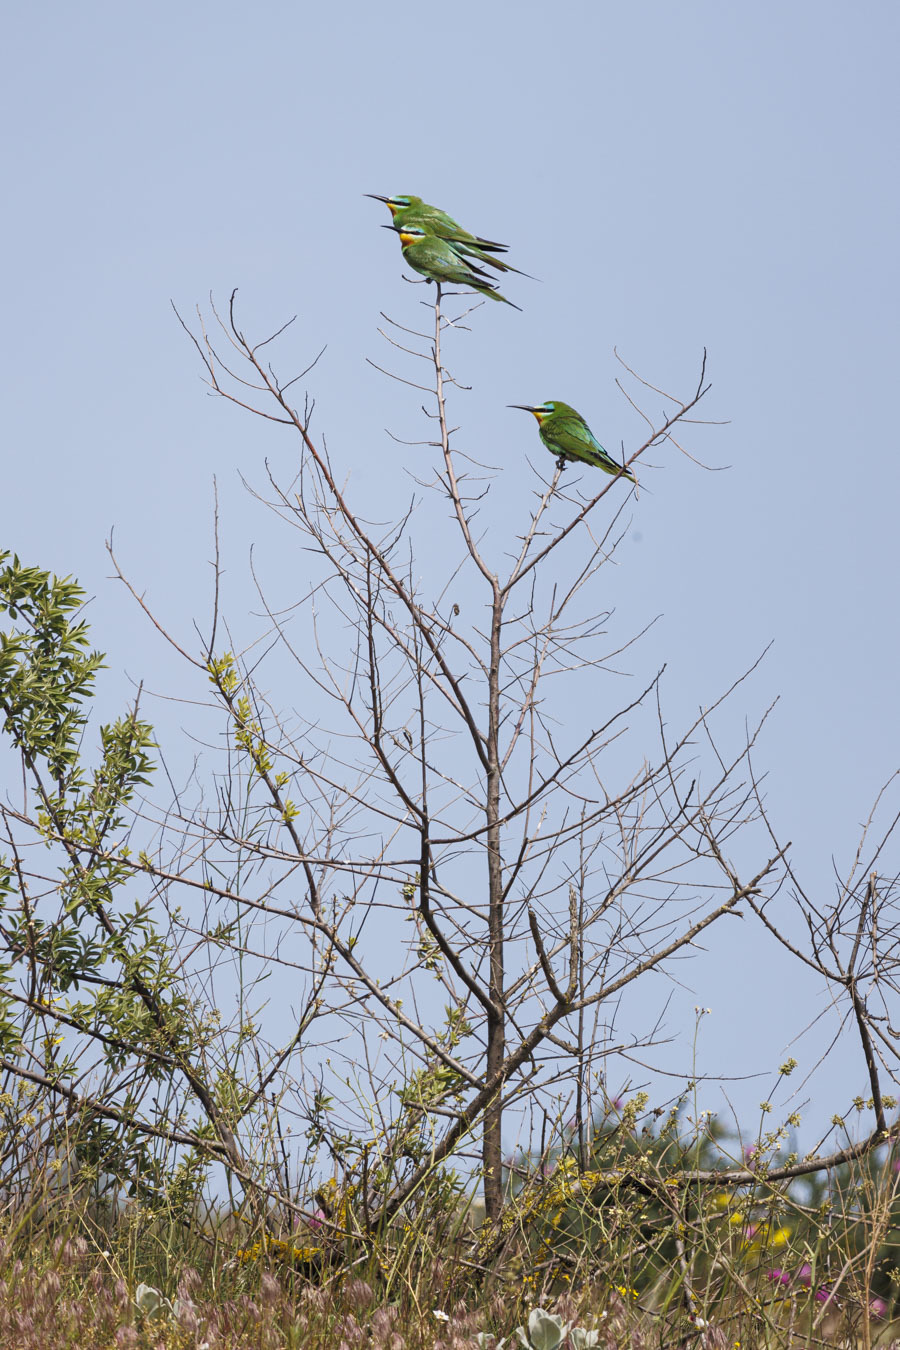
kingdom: Animalia
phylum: Chordata
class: Aves
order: Coraciiformes
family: Meropidae
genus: Merops
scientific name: Merops persicus
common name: Blue-cheeked bee-eater
